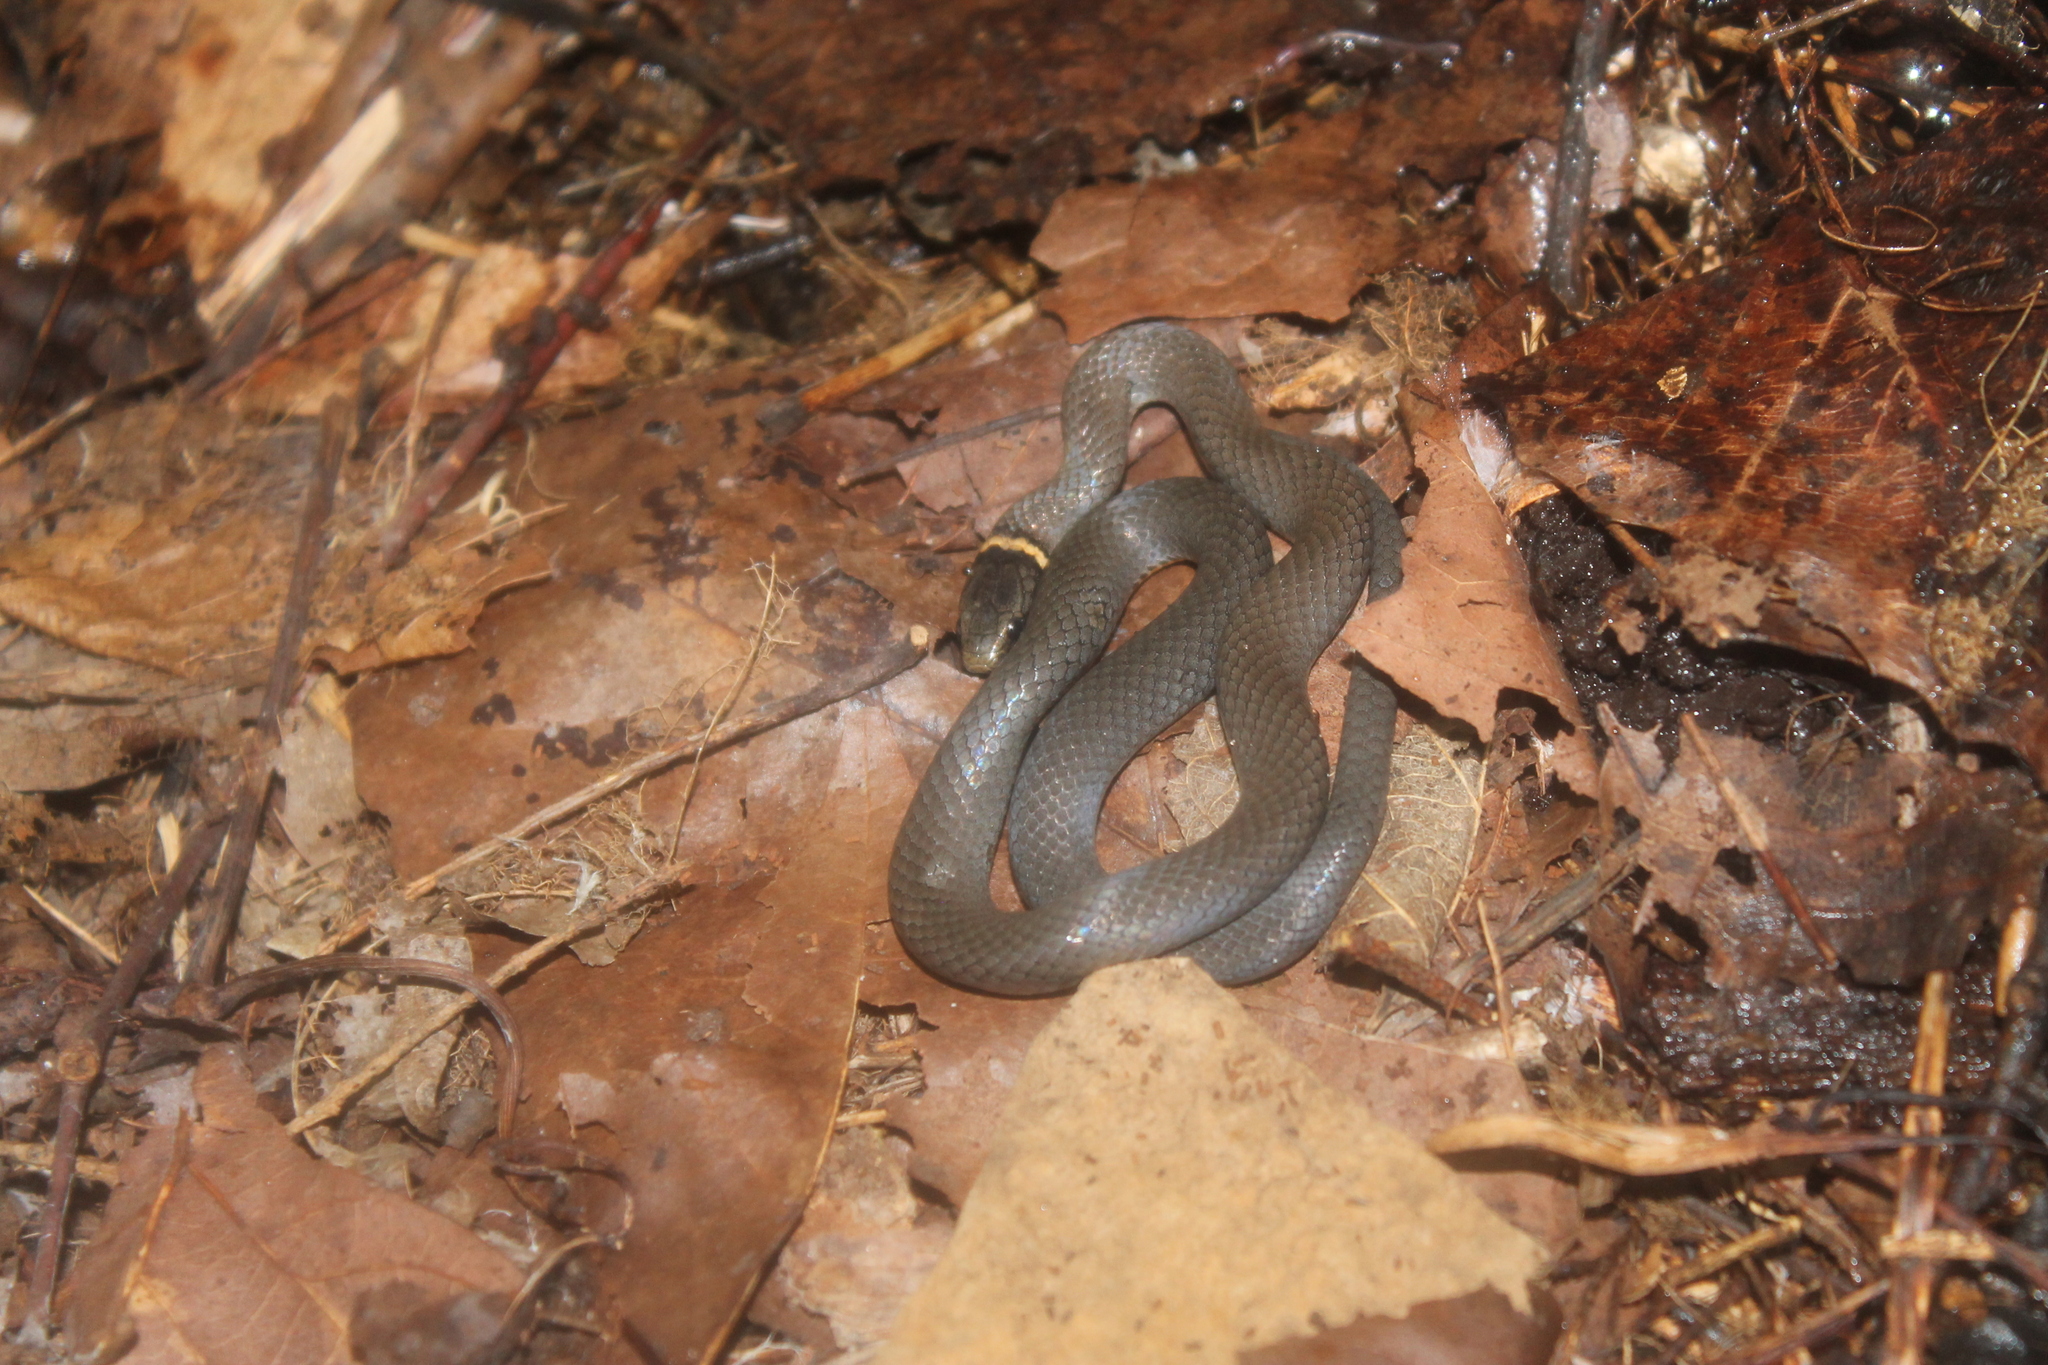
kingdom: Animalia
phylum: Chordata
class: Squamata
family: Colubridae
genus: Diadophis
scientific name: Diadophis punctatus
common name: Ringneck snake
